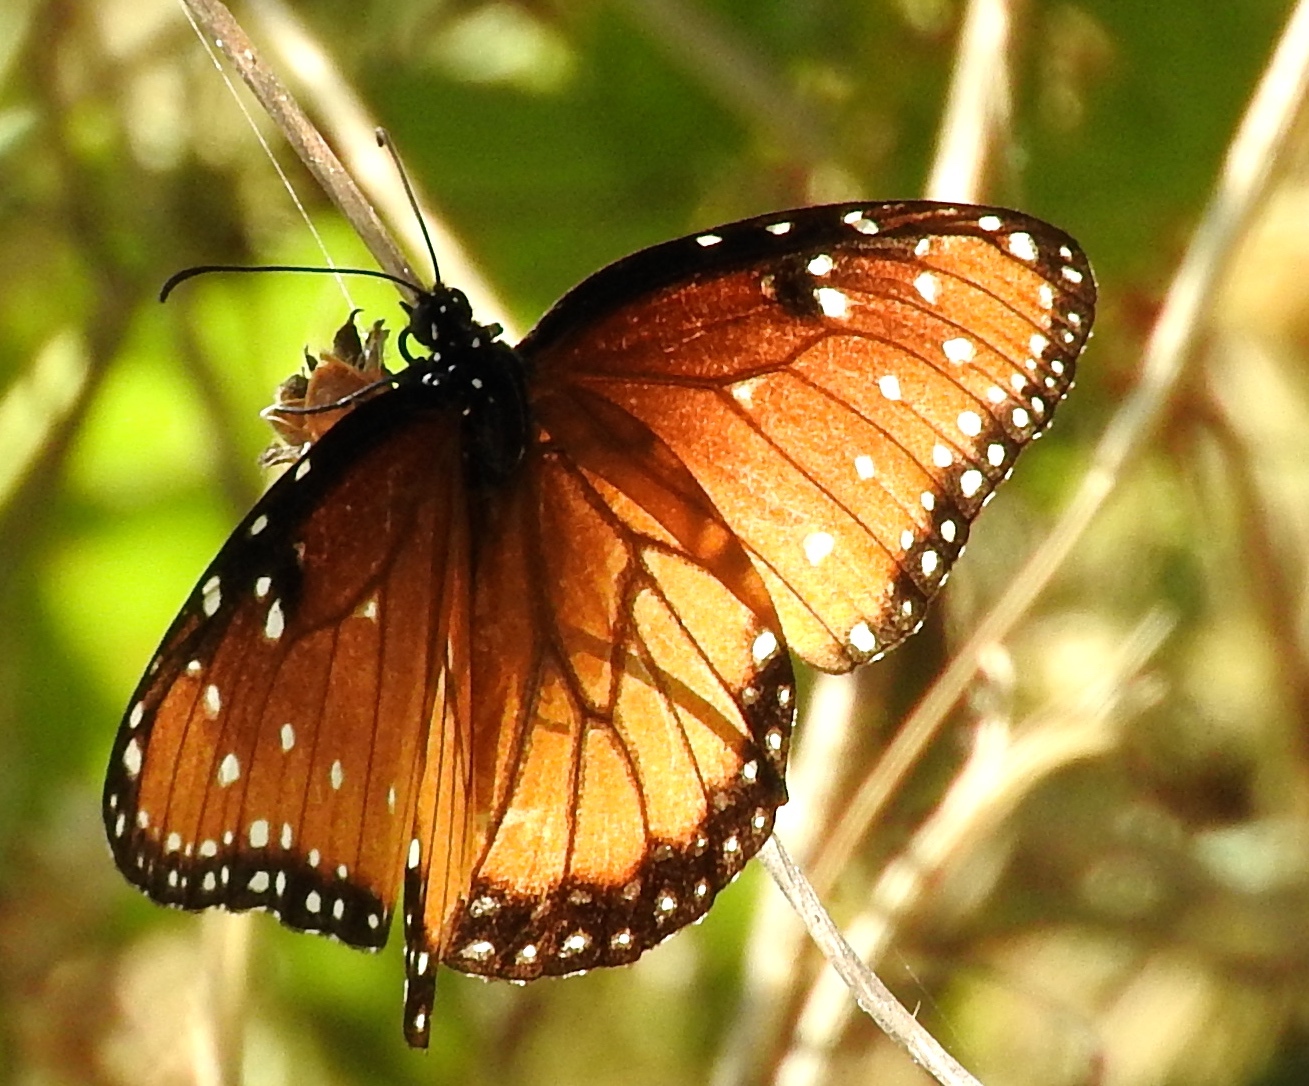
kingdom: Animalia
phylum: Arthropoda
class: Insecta
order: Lepidoptera
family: Nymphalidae
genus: Danaus
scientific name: Danaus gilippus
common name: Queen
